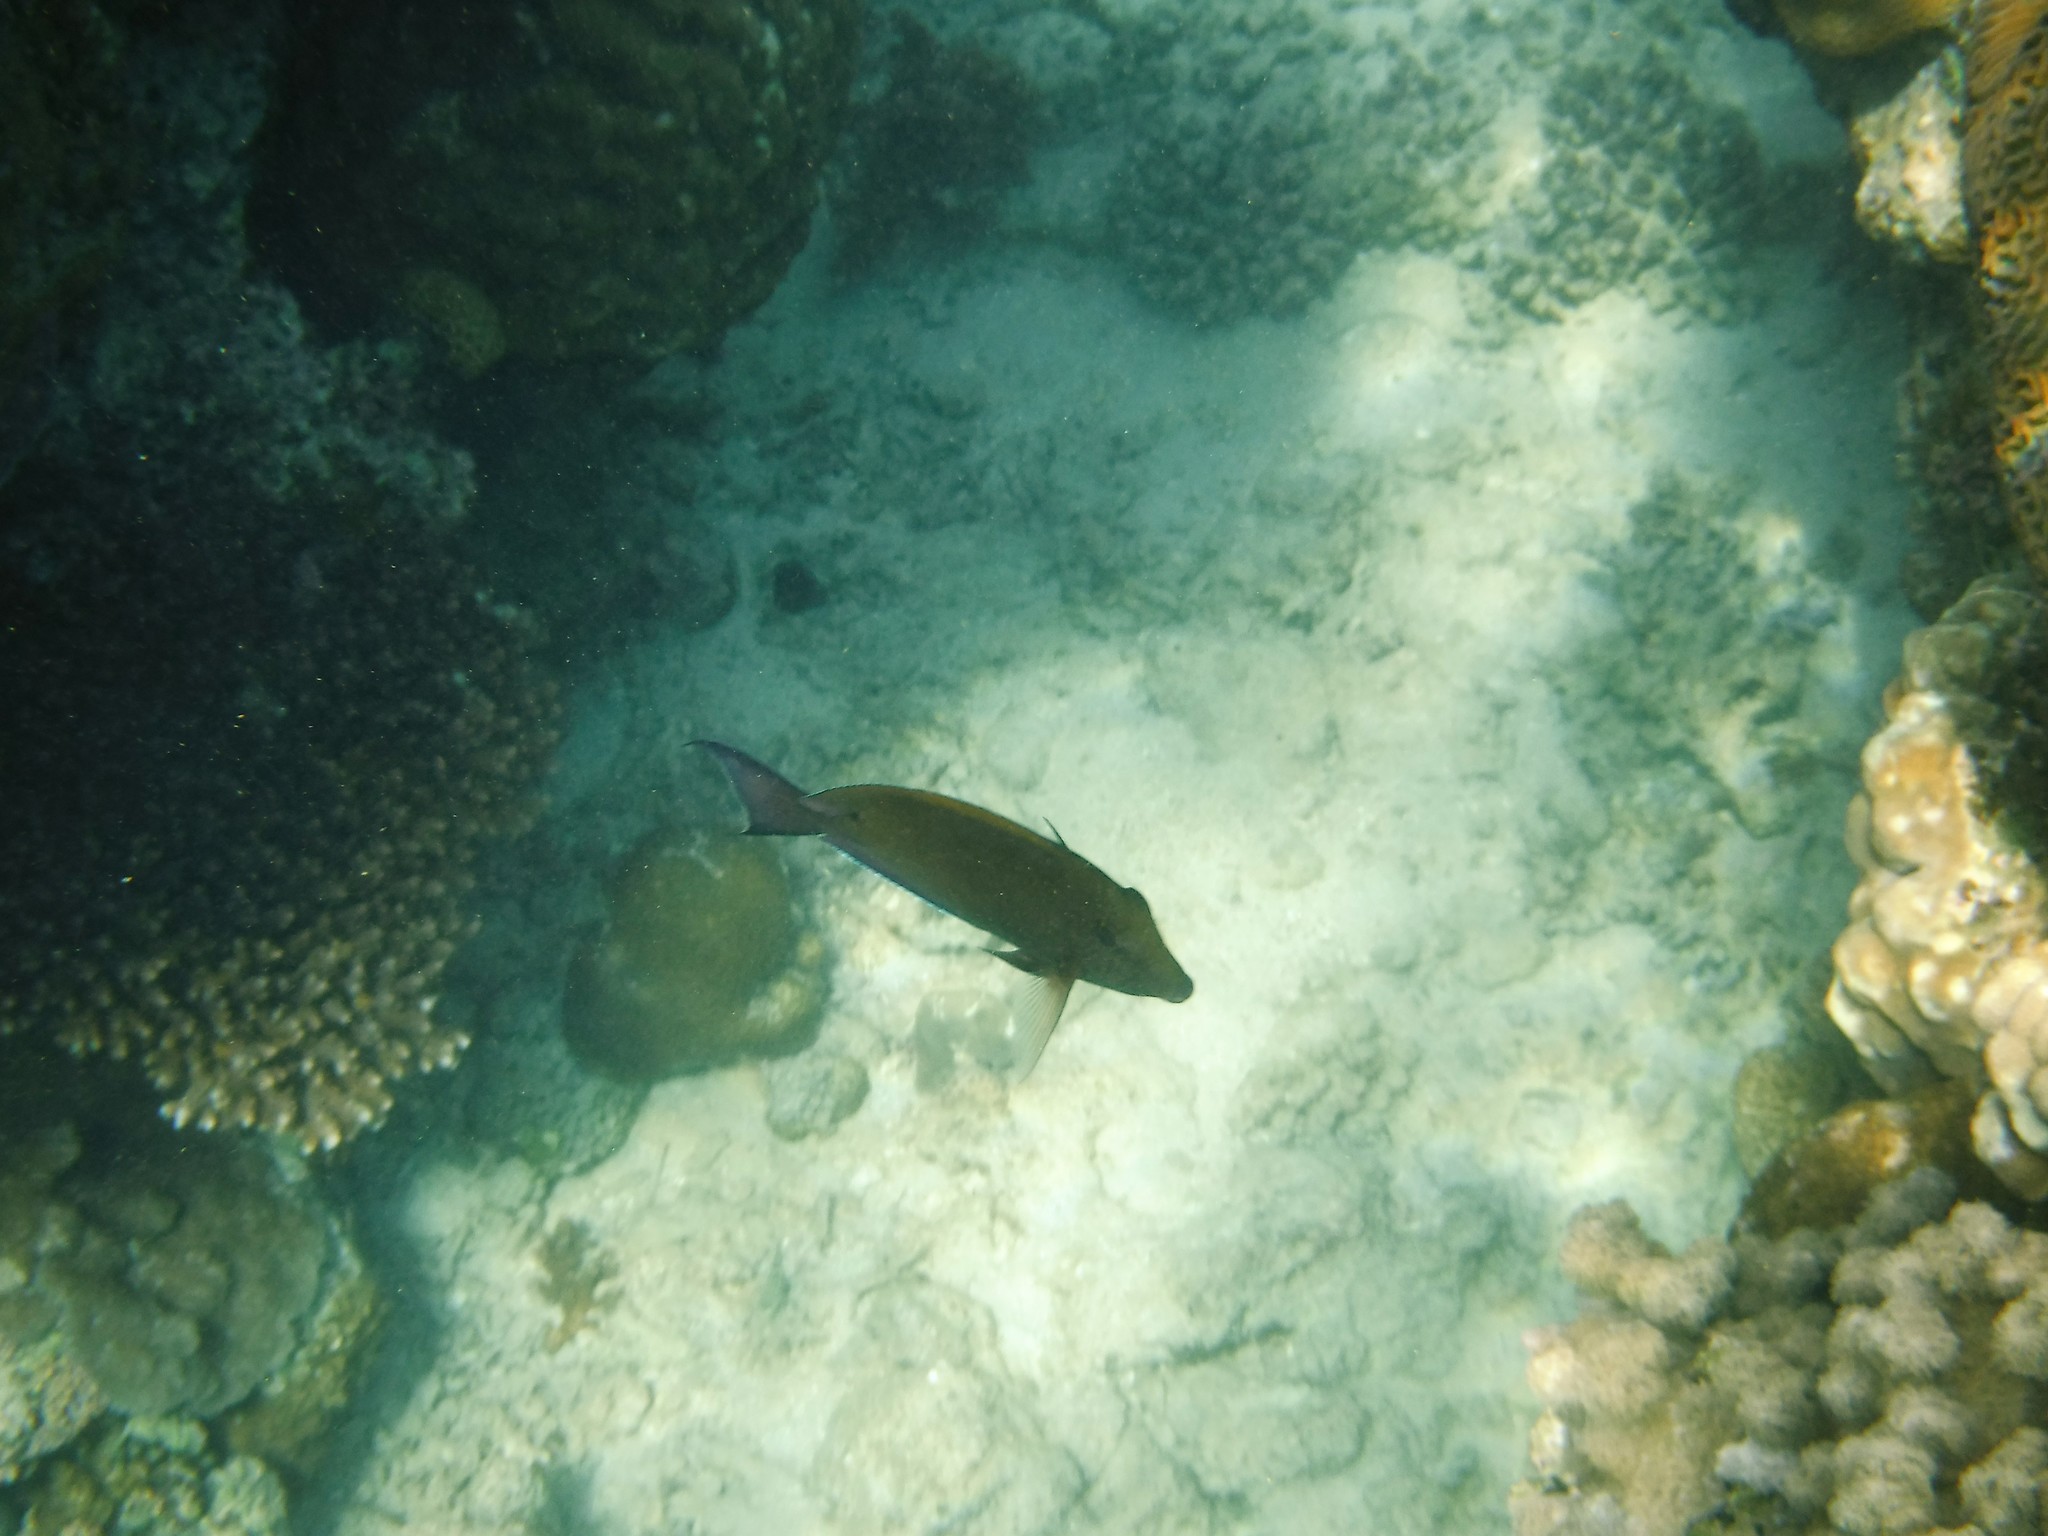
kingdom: Animalia
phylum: Chordata
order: Perciformes
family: Acanthuridae
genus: Acanthurus
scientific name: Acanthurus nigrofuscus
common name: Blackspot surgeonfish
